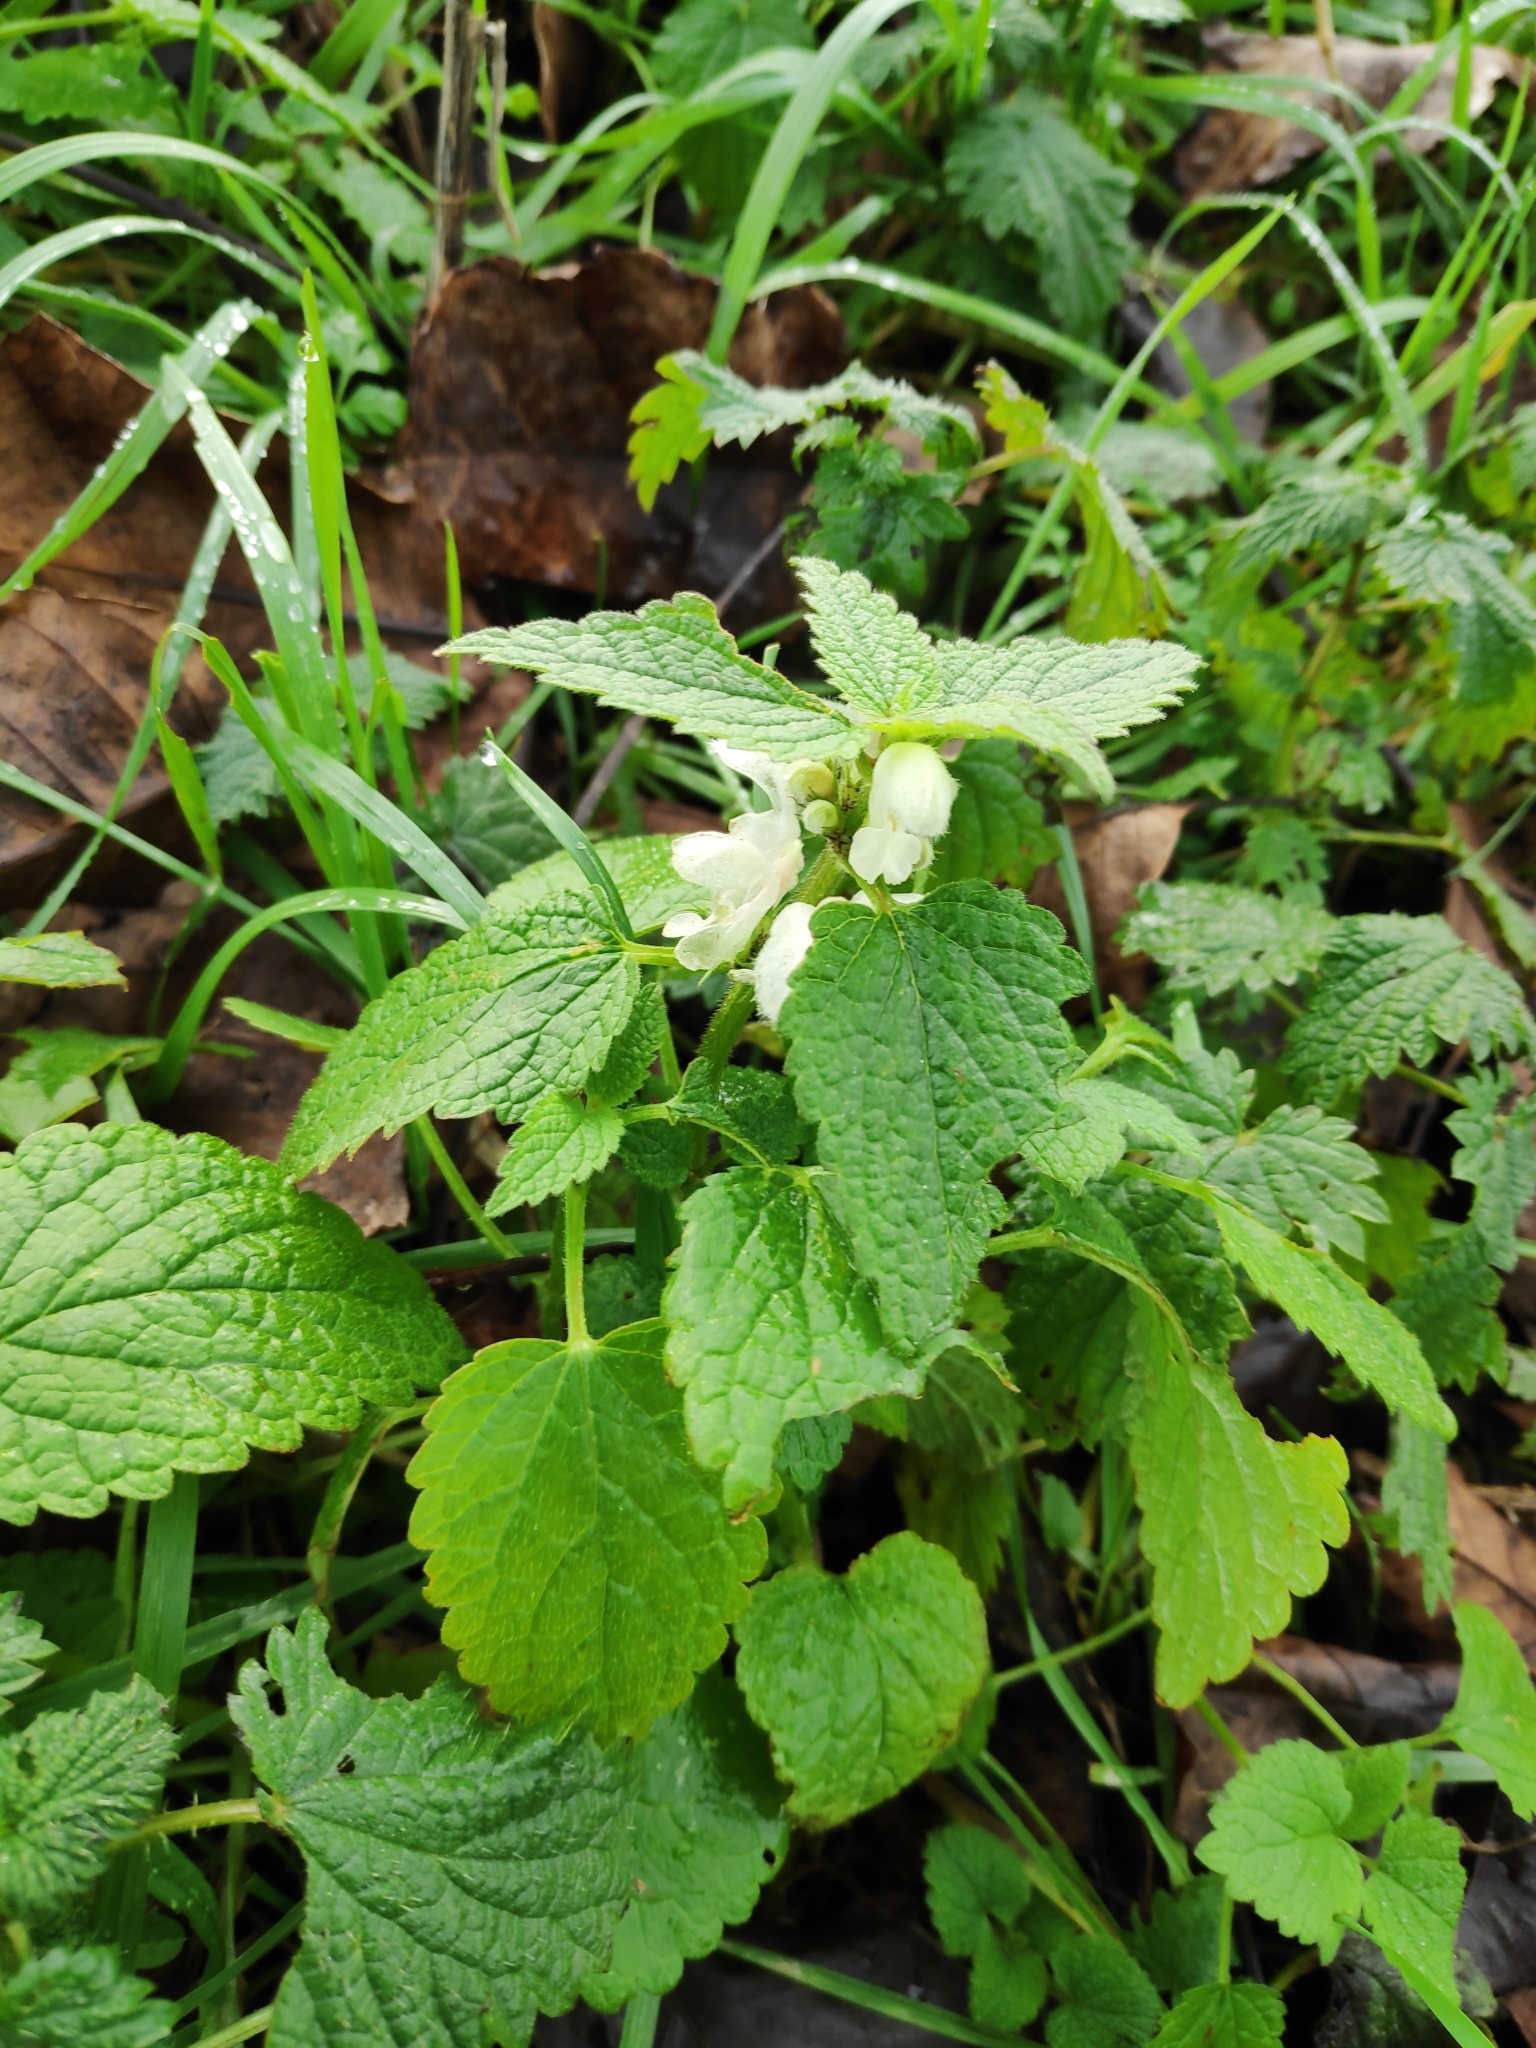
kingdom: Plantae
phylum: Tracheophyta
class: Magnoliopsida
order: Lamiales
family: Lamiaceae
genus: Lamium
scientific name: Lamium album
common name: White dead-nettle
